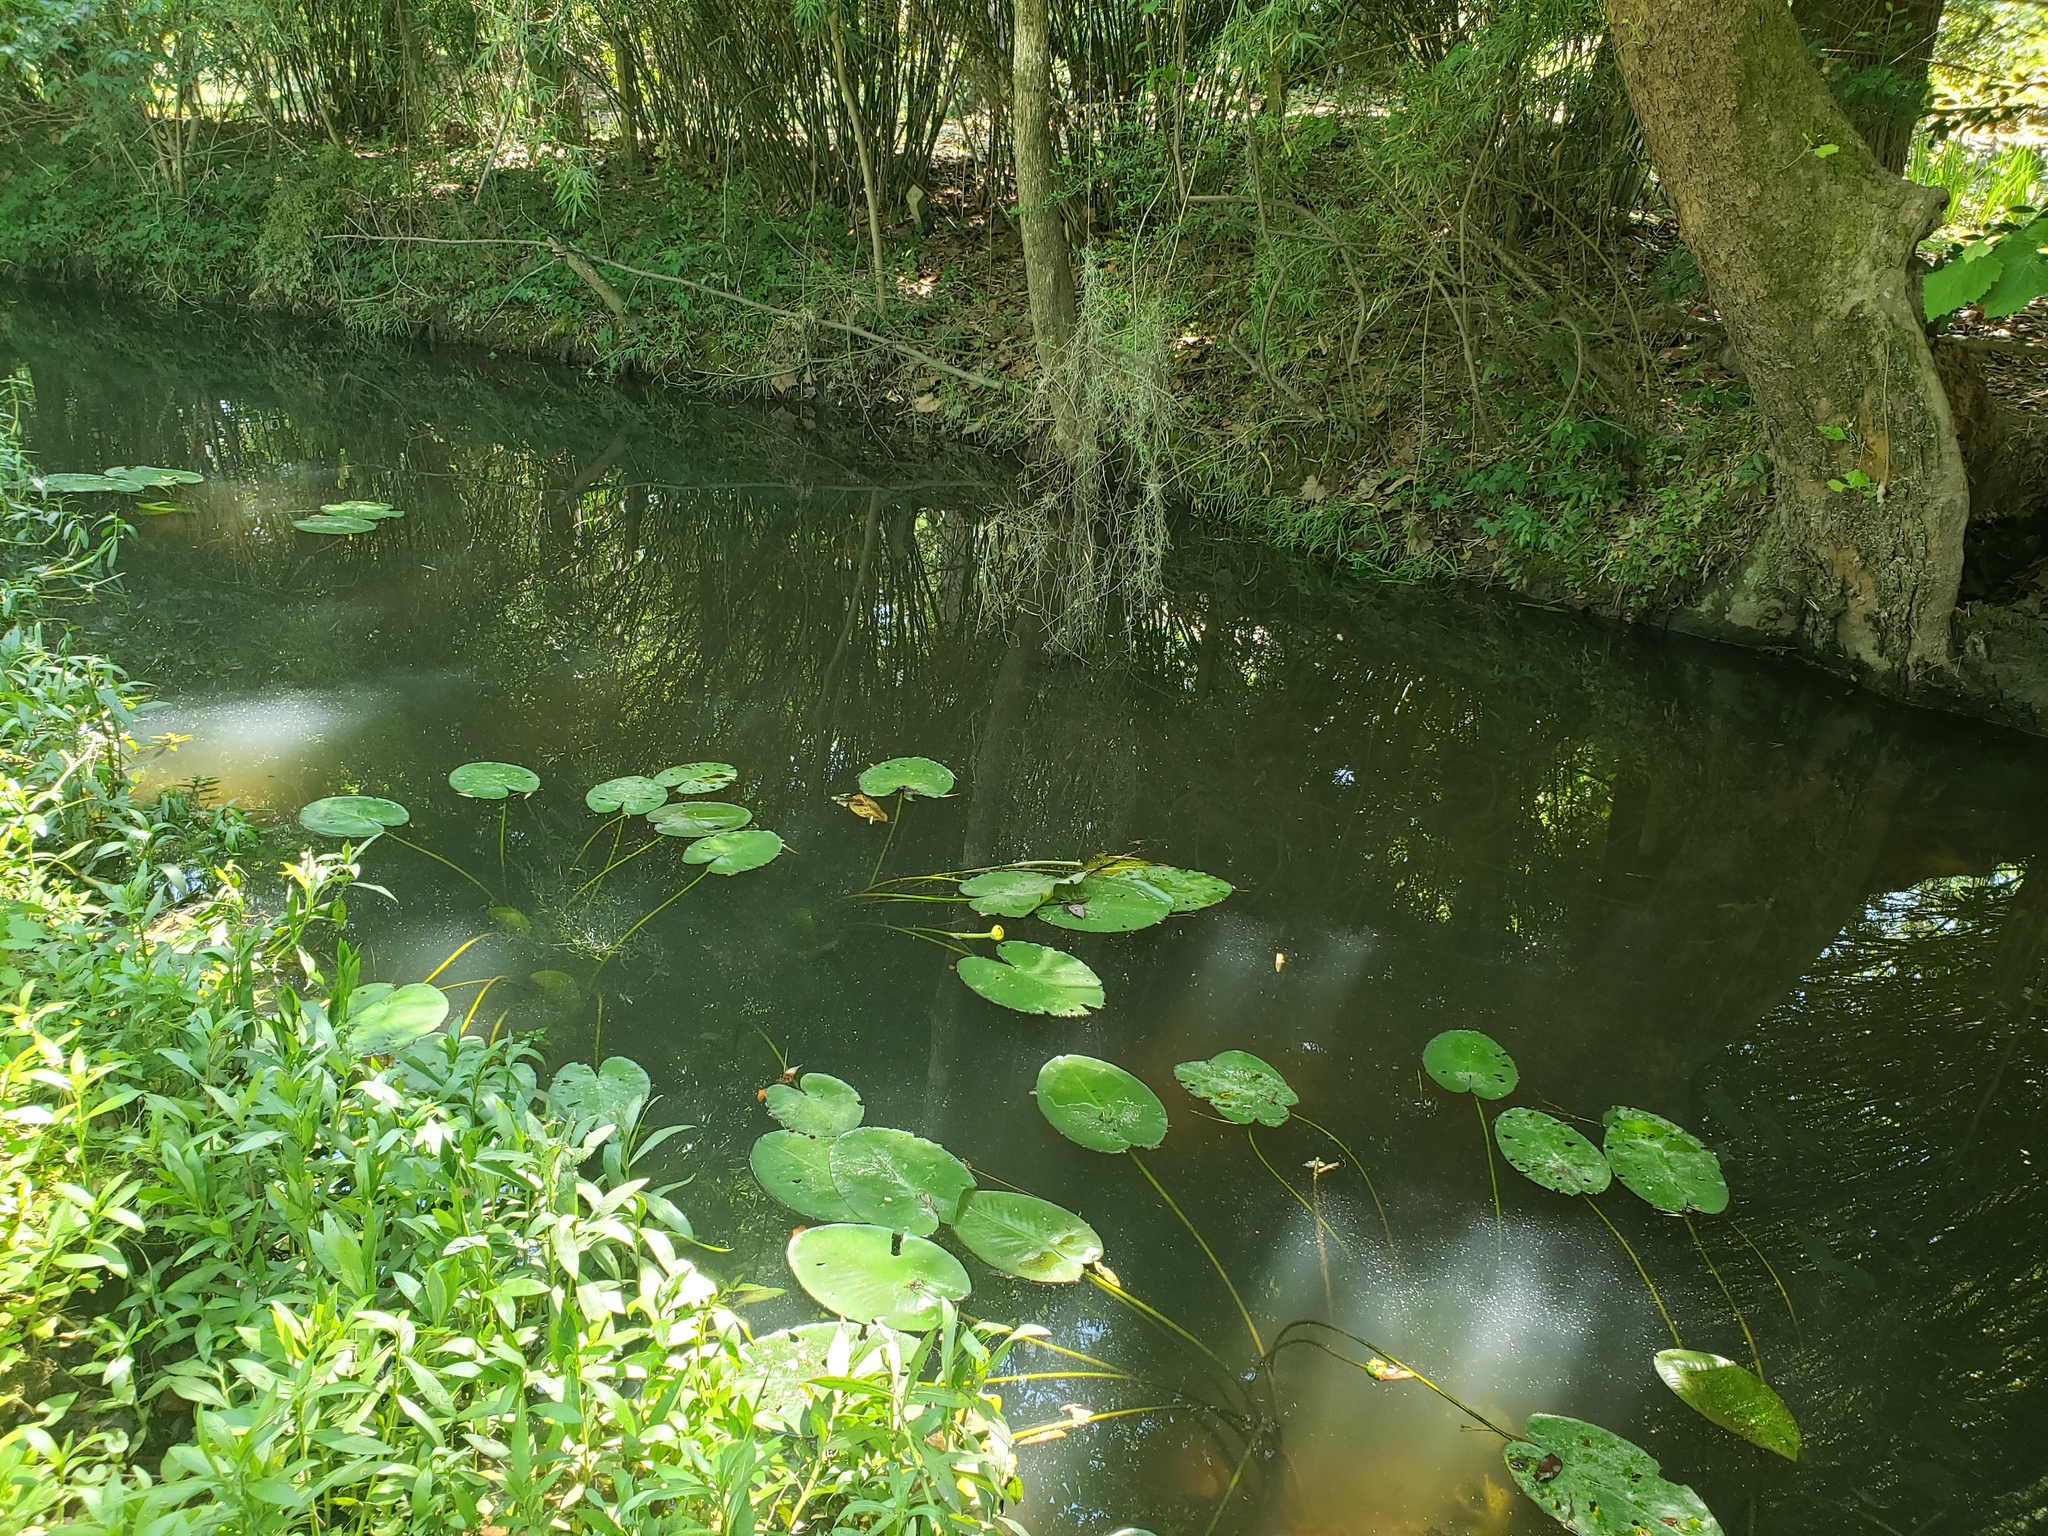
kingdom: Plantae
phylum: Tracheophyta
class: Magnoliopsida
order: Nymphaeales
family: Nymphaeaceae
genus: Nuphar
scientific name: Nuphar advena
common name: Spatter-dock
